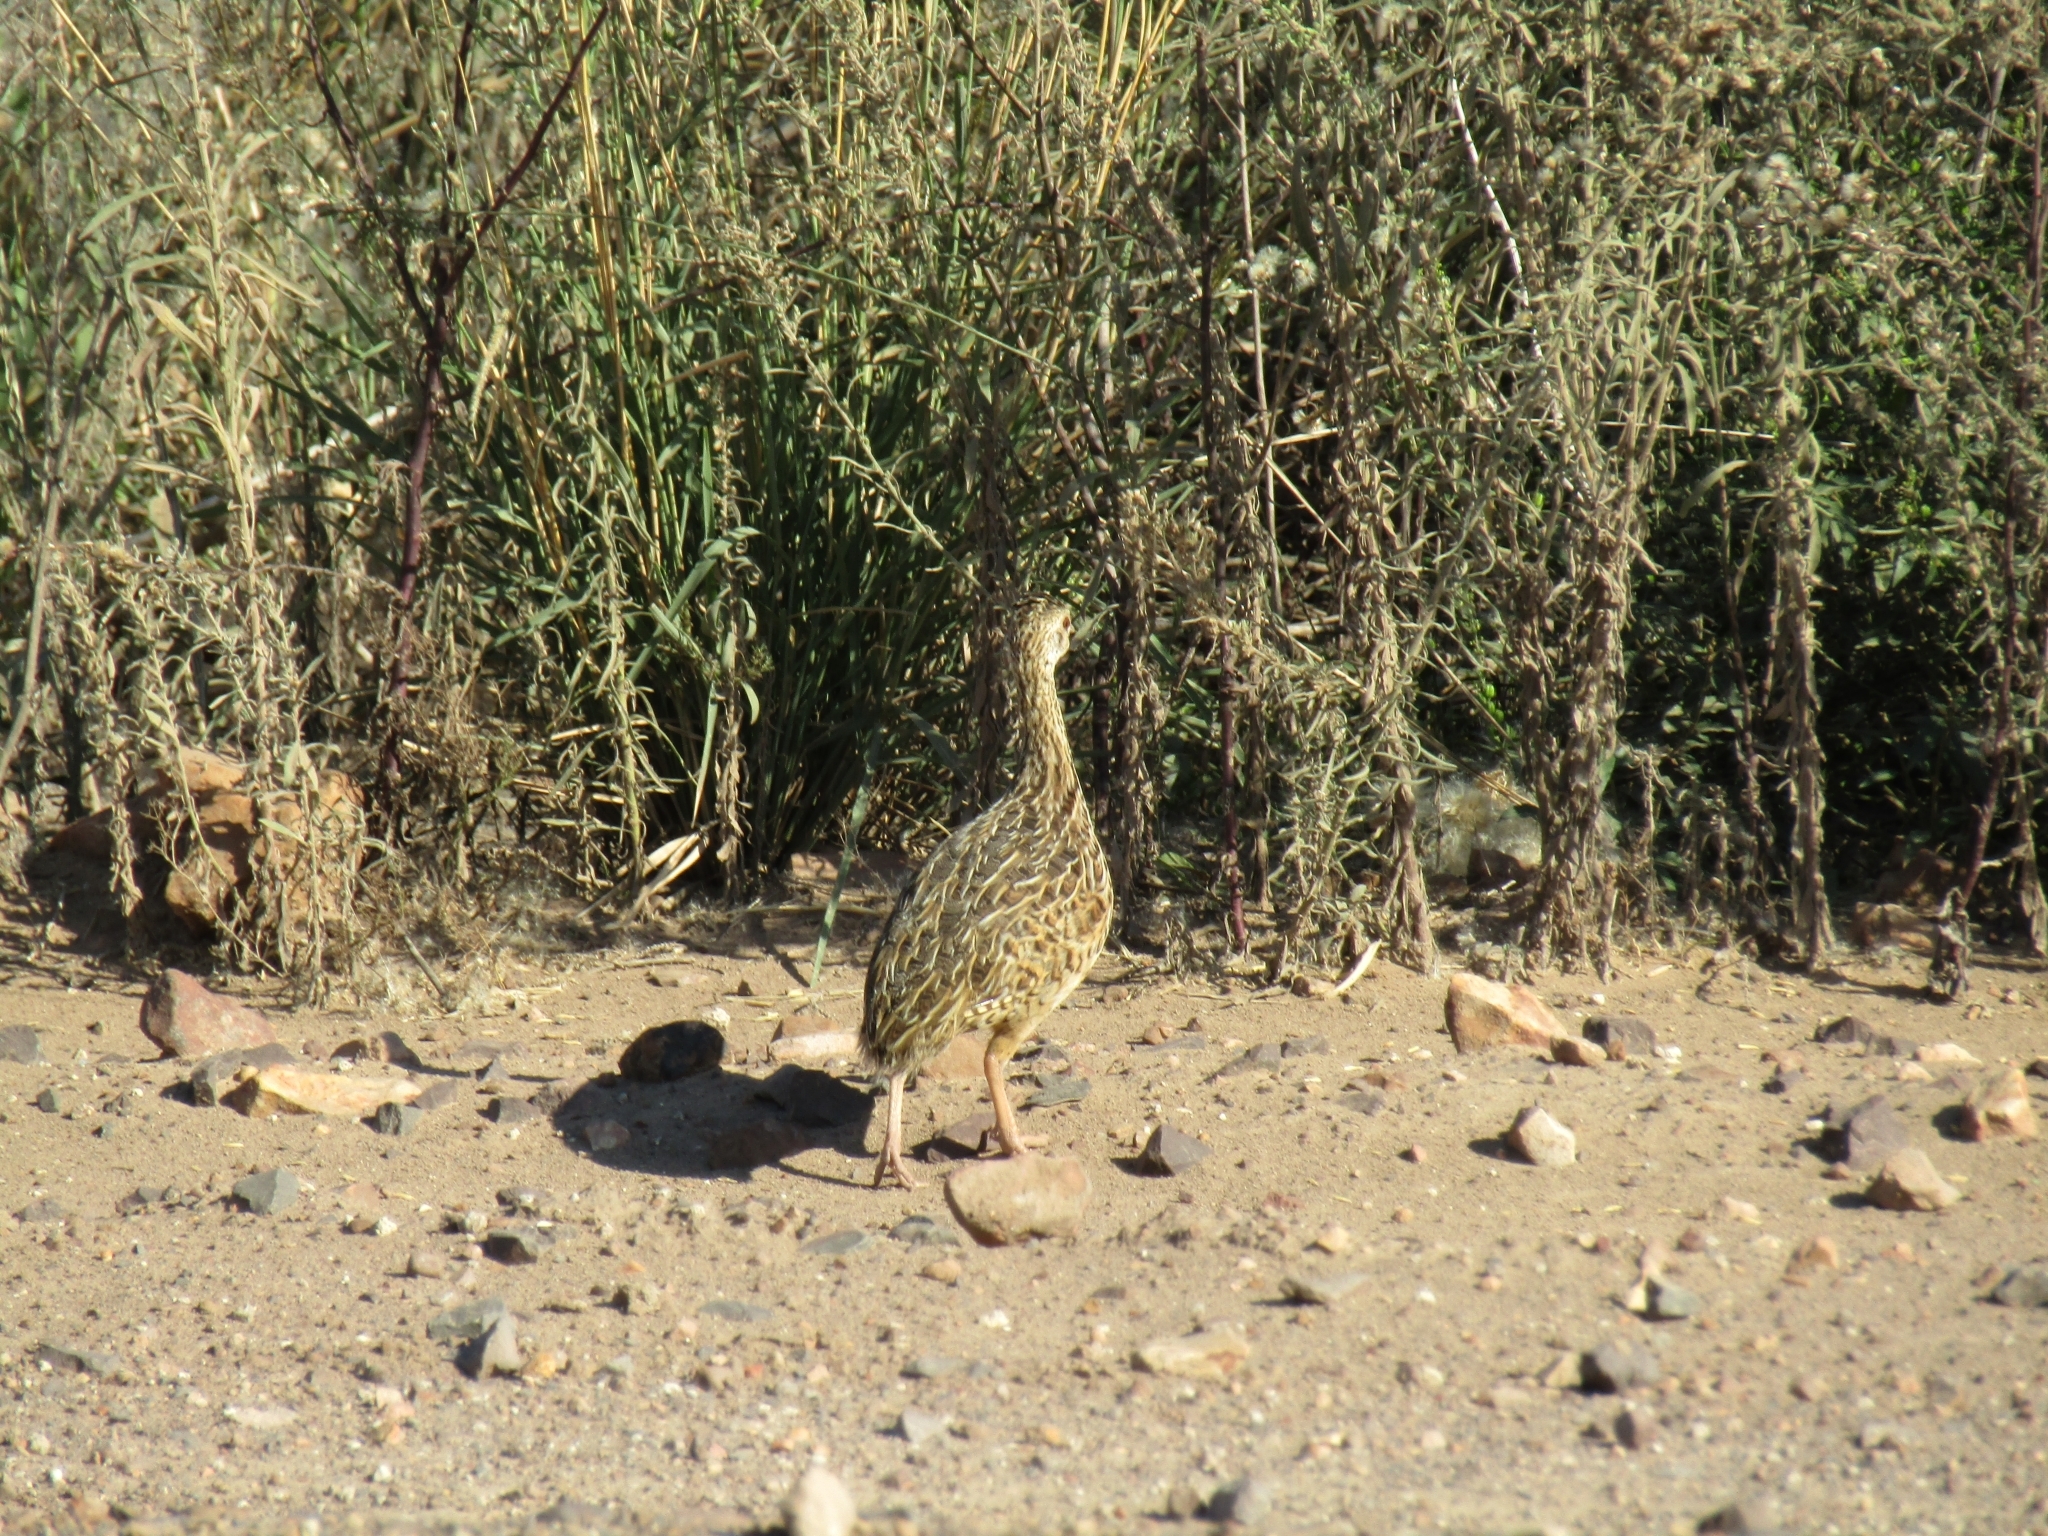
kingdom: Animalia
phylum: Chordata
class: Aves
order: Tinamiformes
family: Tinamidae
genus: Nothura
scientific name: Nothura maculosa
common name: Spotted nothura
